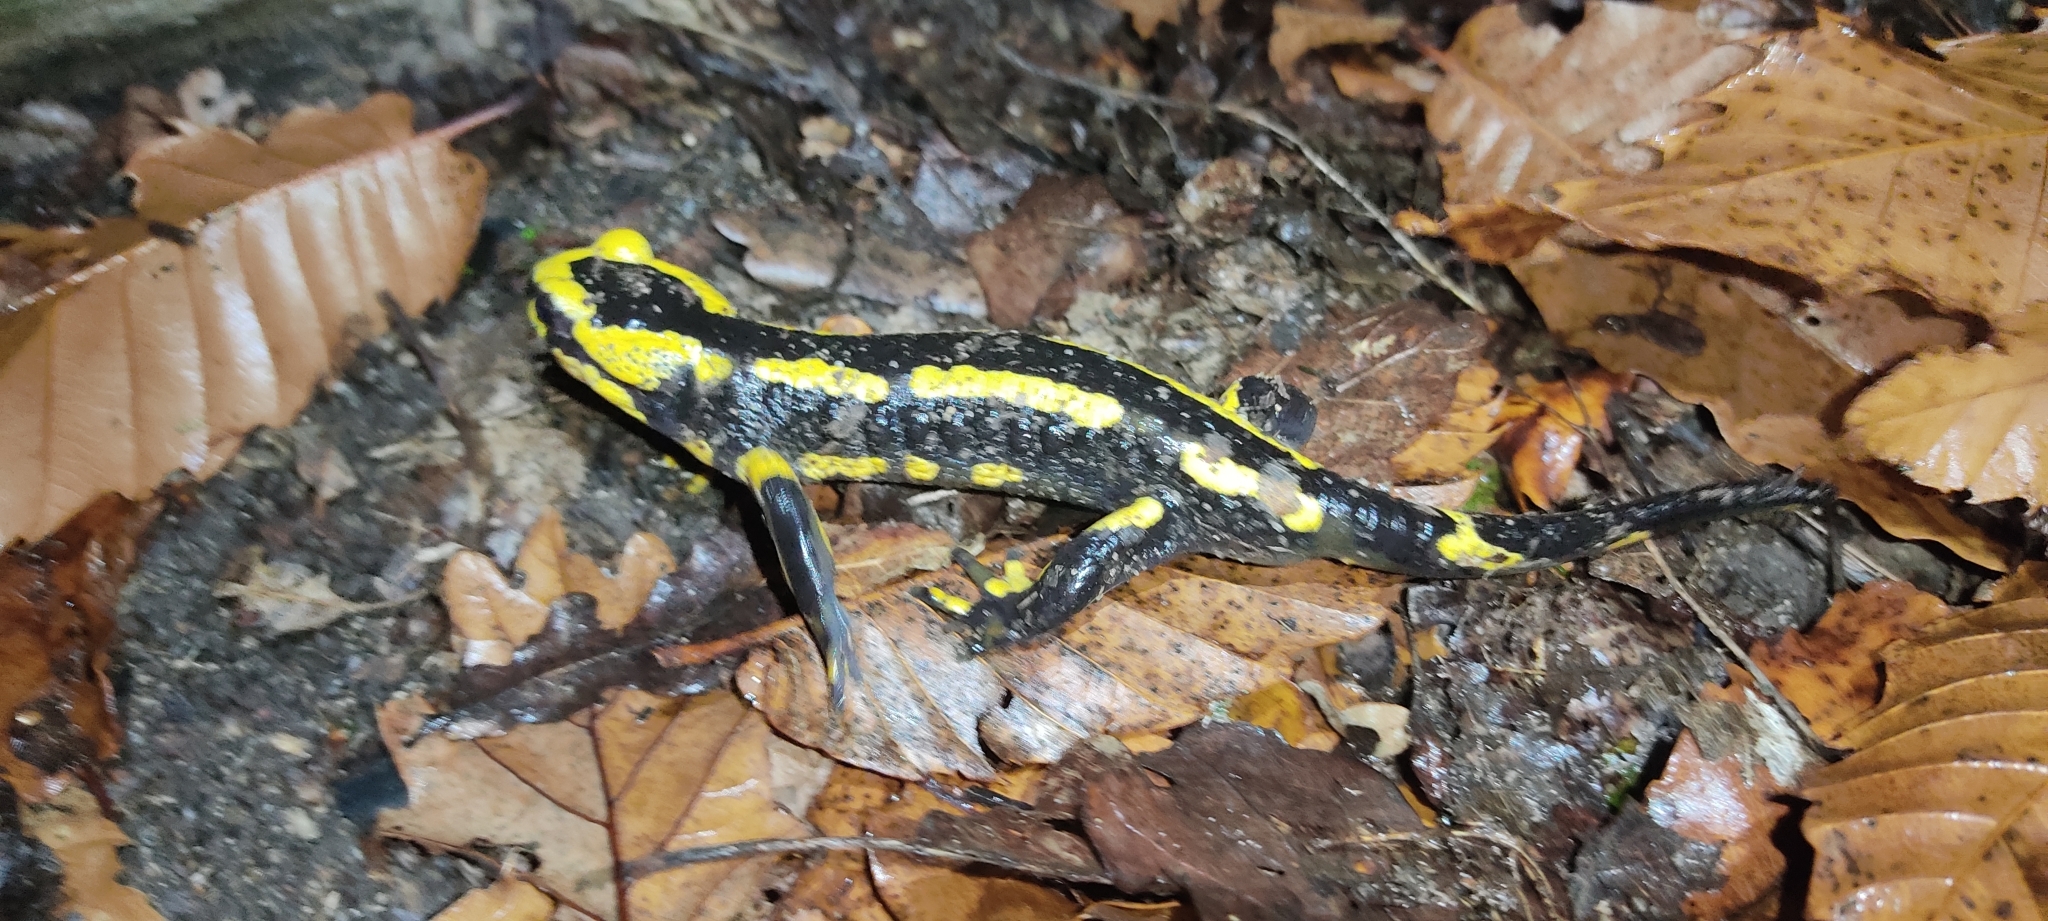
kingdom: Animalia
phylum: Chordata
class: Amphibia
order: Caudata
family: Salamandridae
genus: Salamandra
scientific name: Salamandra salamandra
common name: Fire salamander
